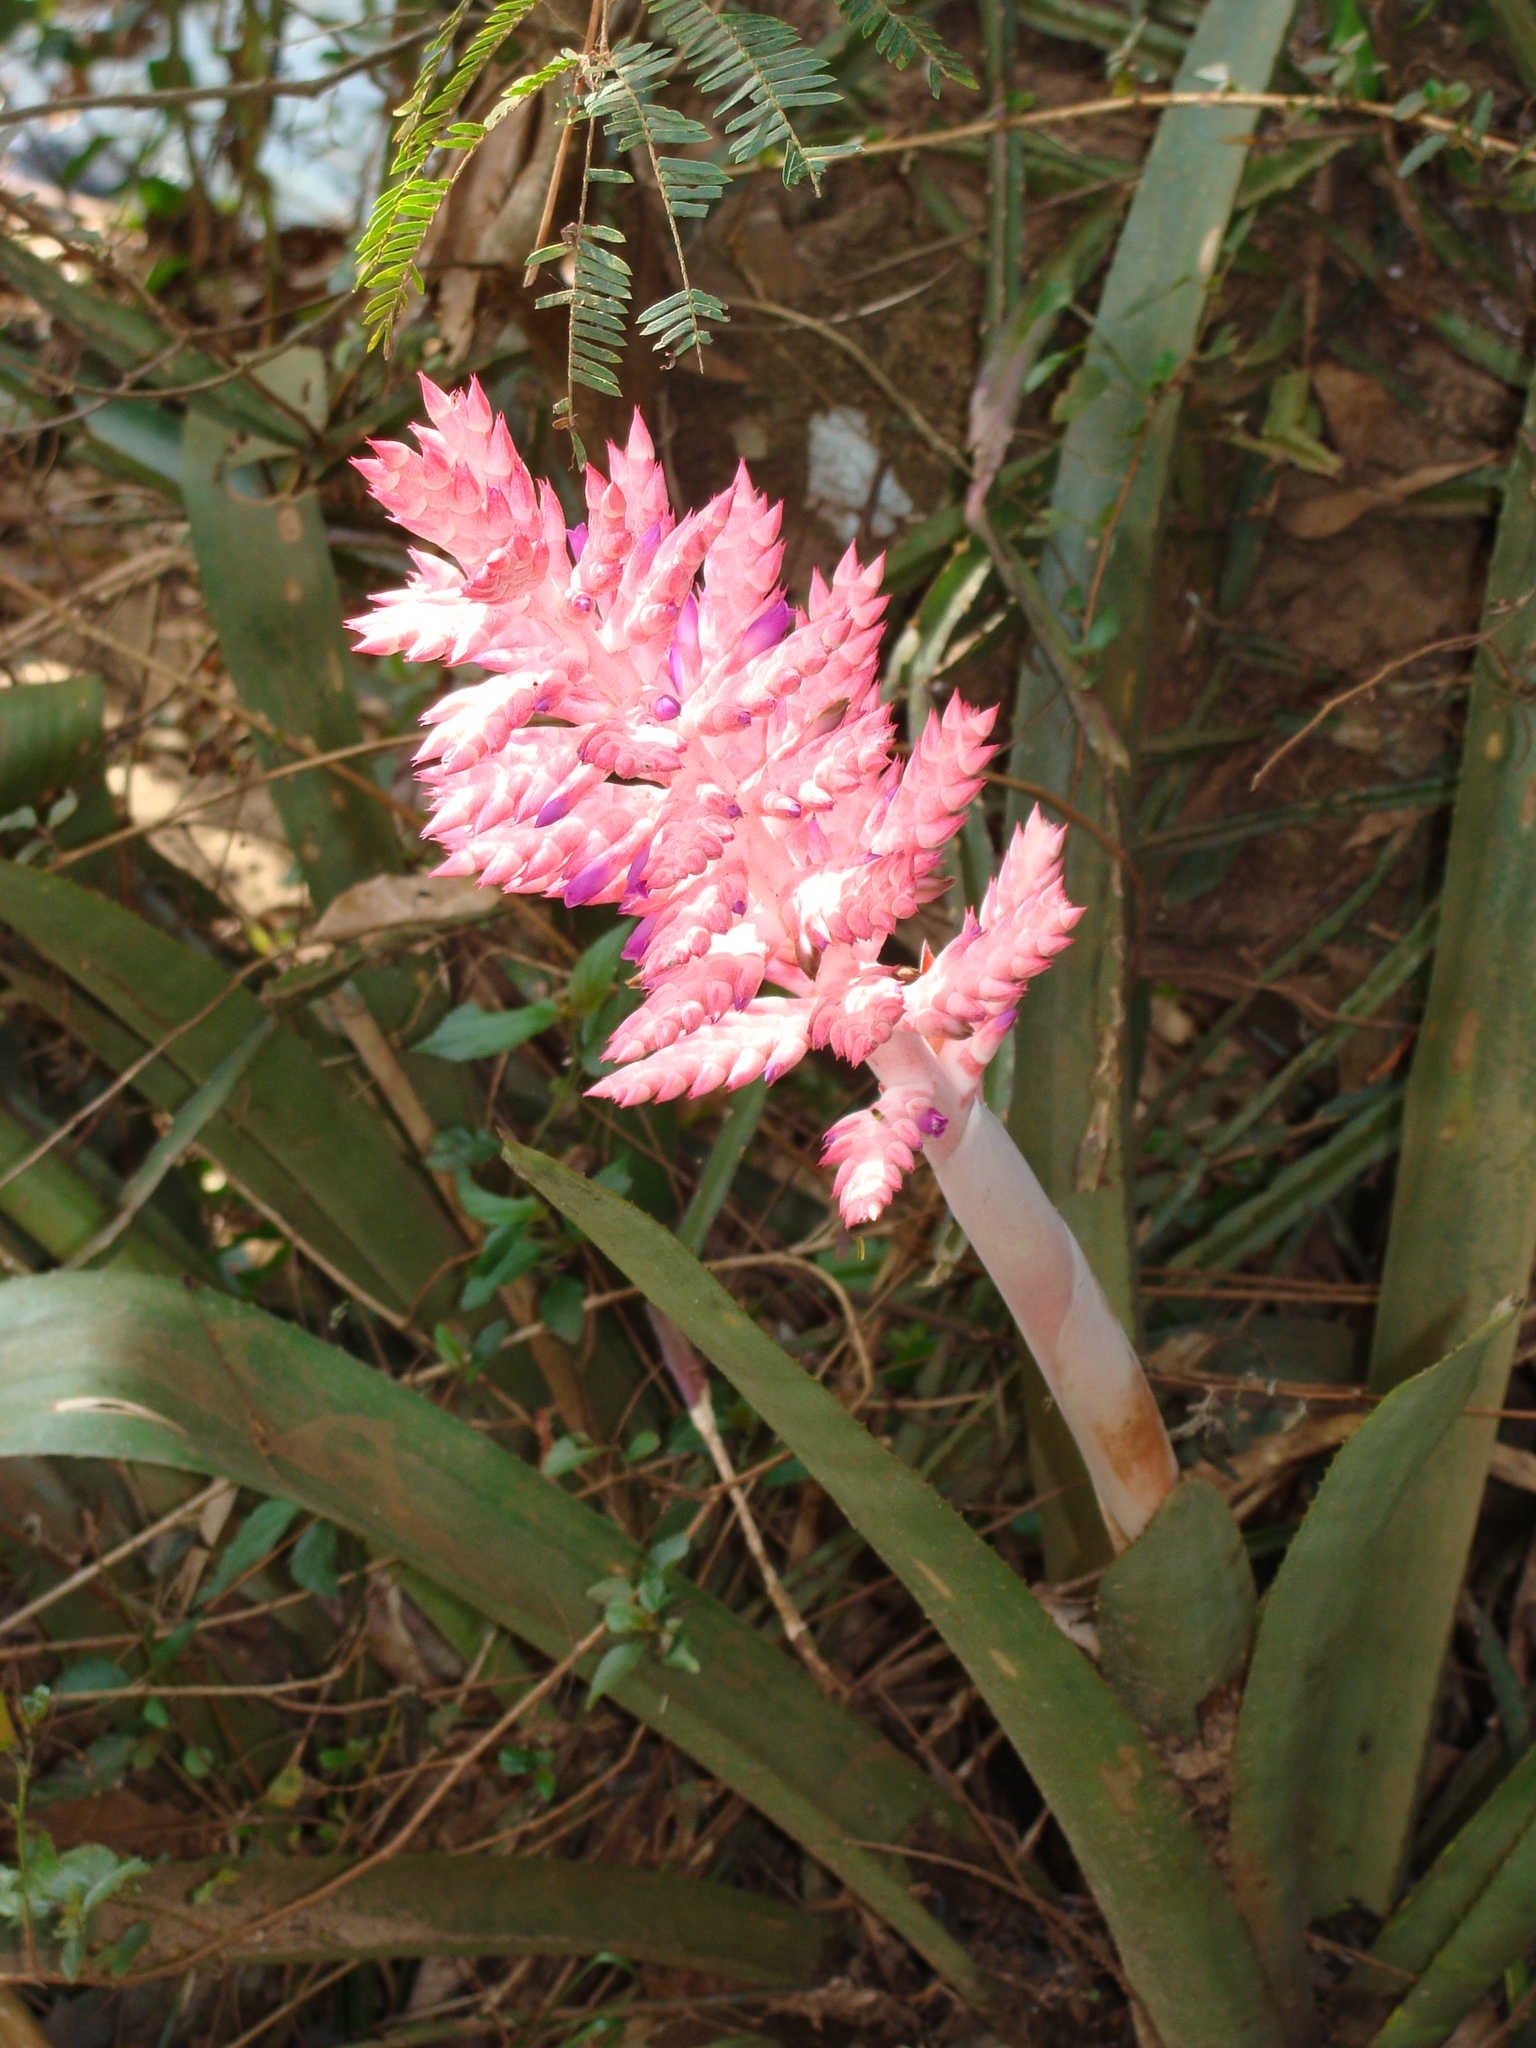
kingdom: Plantae
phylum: Tracheophyta
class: Liliopsida
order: Poales
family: Bromeliaceae
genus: Aechmea
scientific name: Aechmea distichantha
